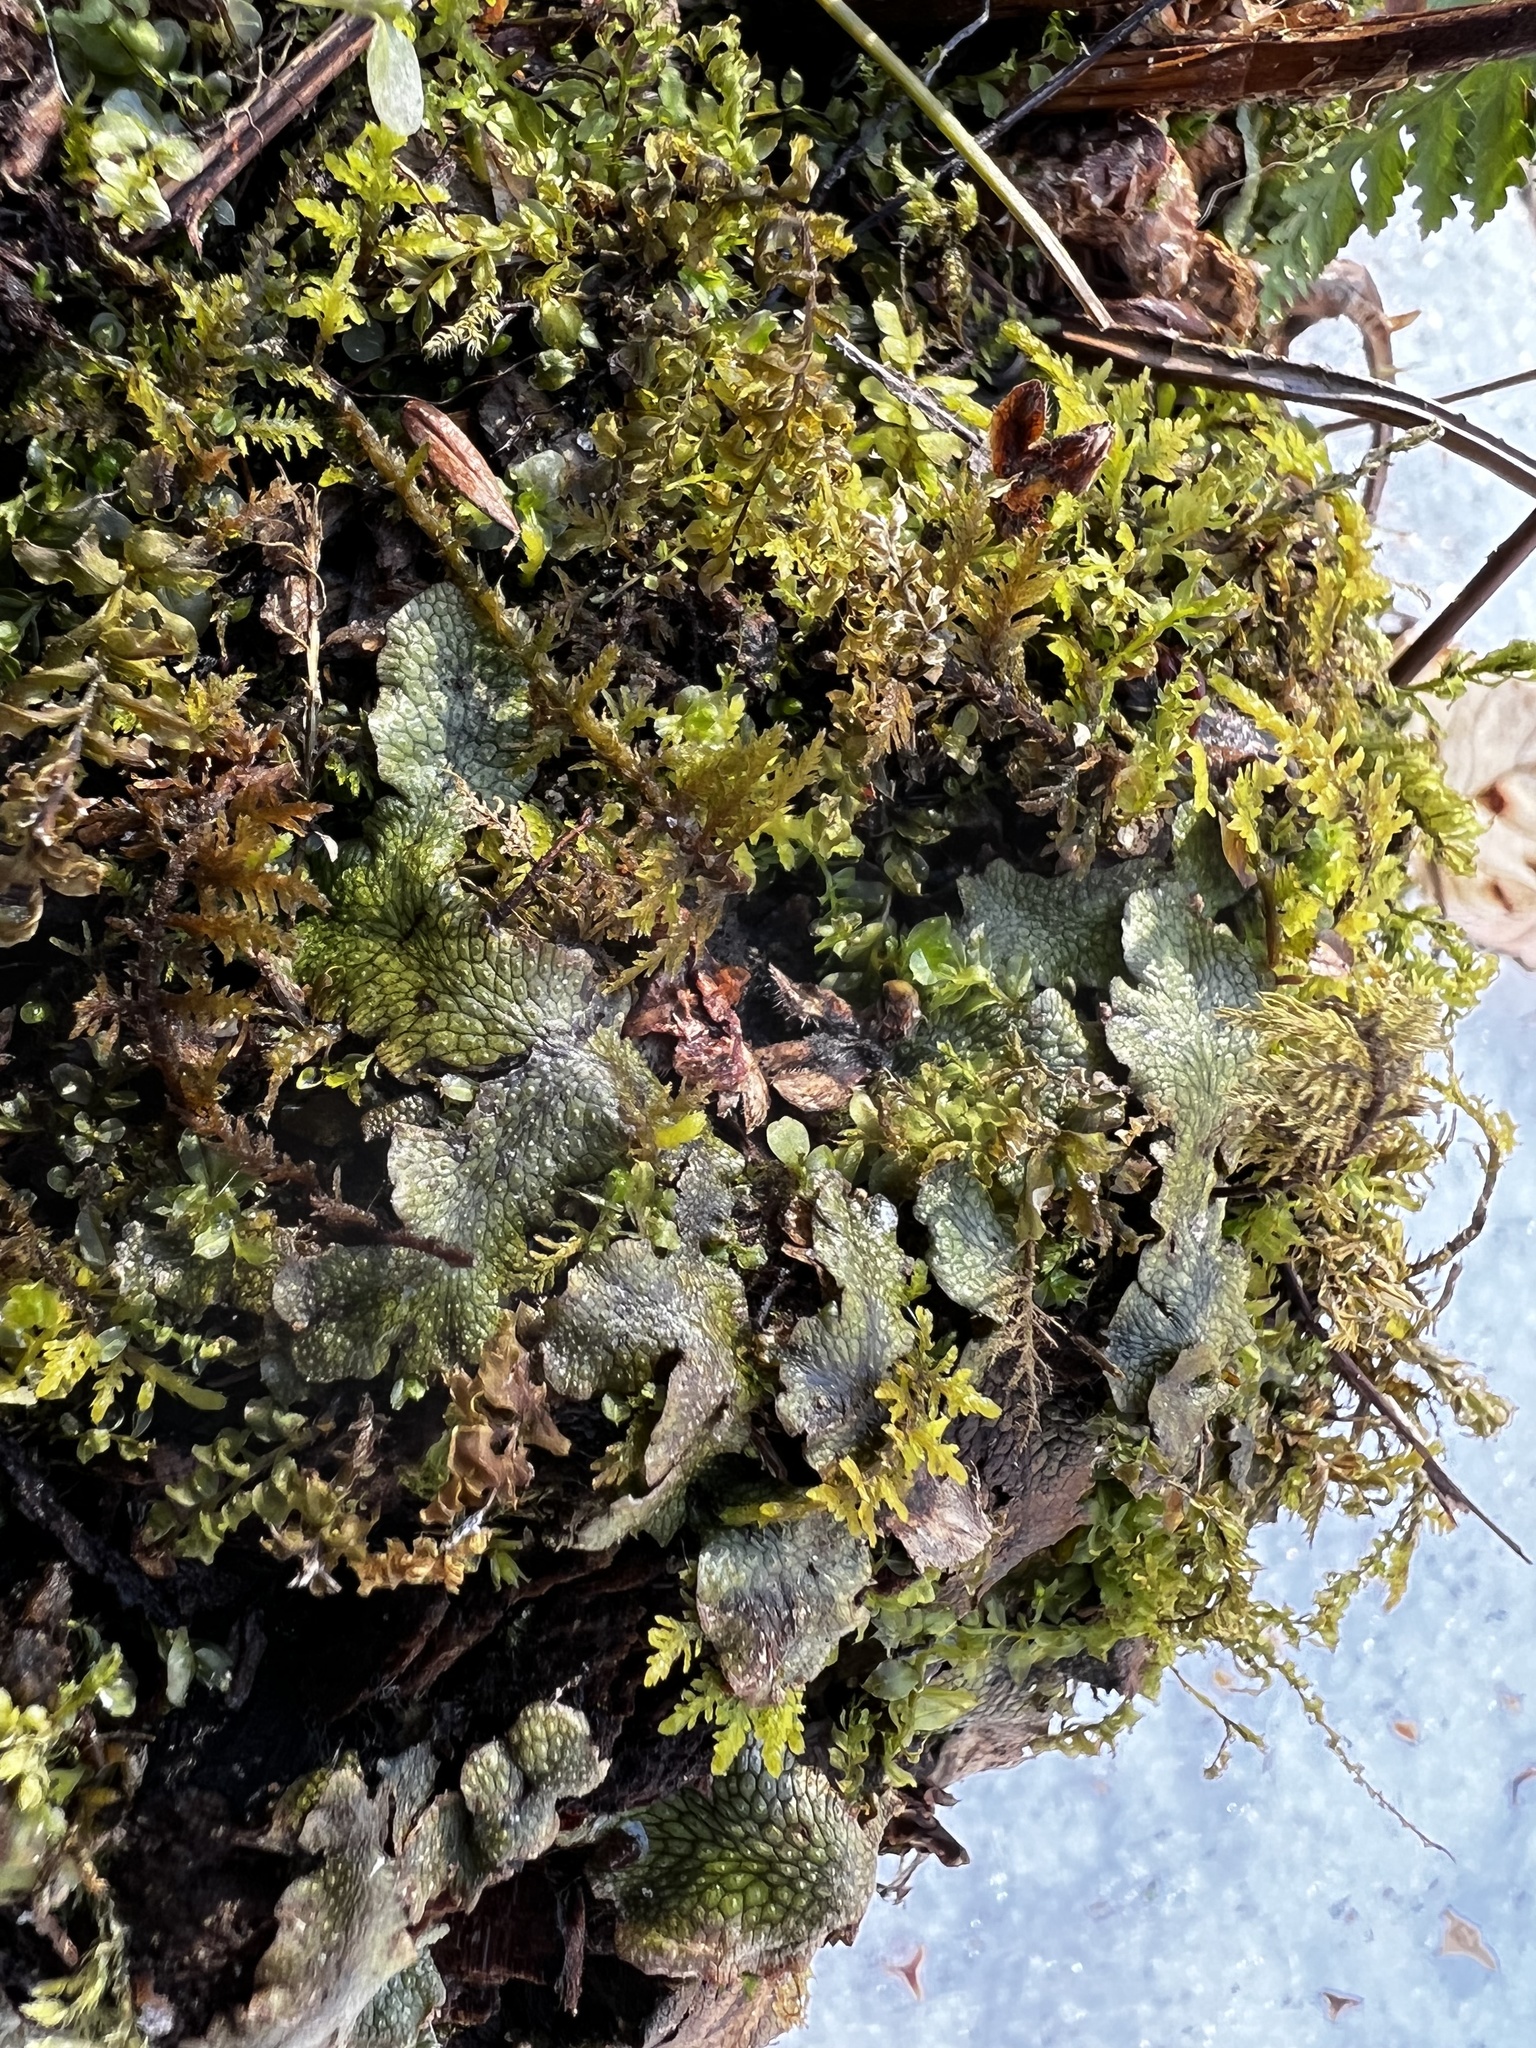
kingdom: Plantae
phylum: Marchantiophyta
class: Marchantiopsida
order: Marchantiales
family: Conocephalaceae
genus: Conocephalum
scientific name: Conocephalum salebrosum
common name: Cat-tongue liverwort
